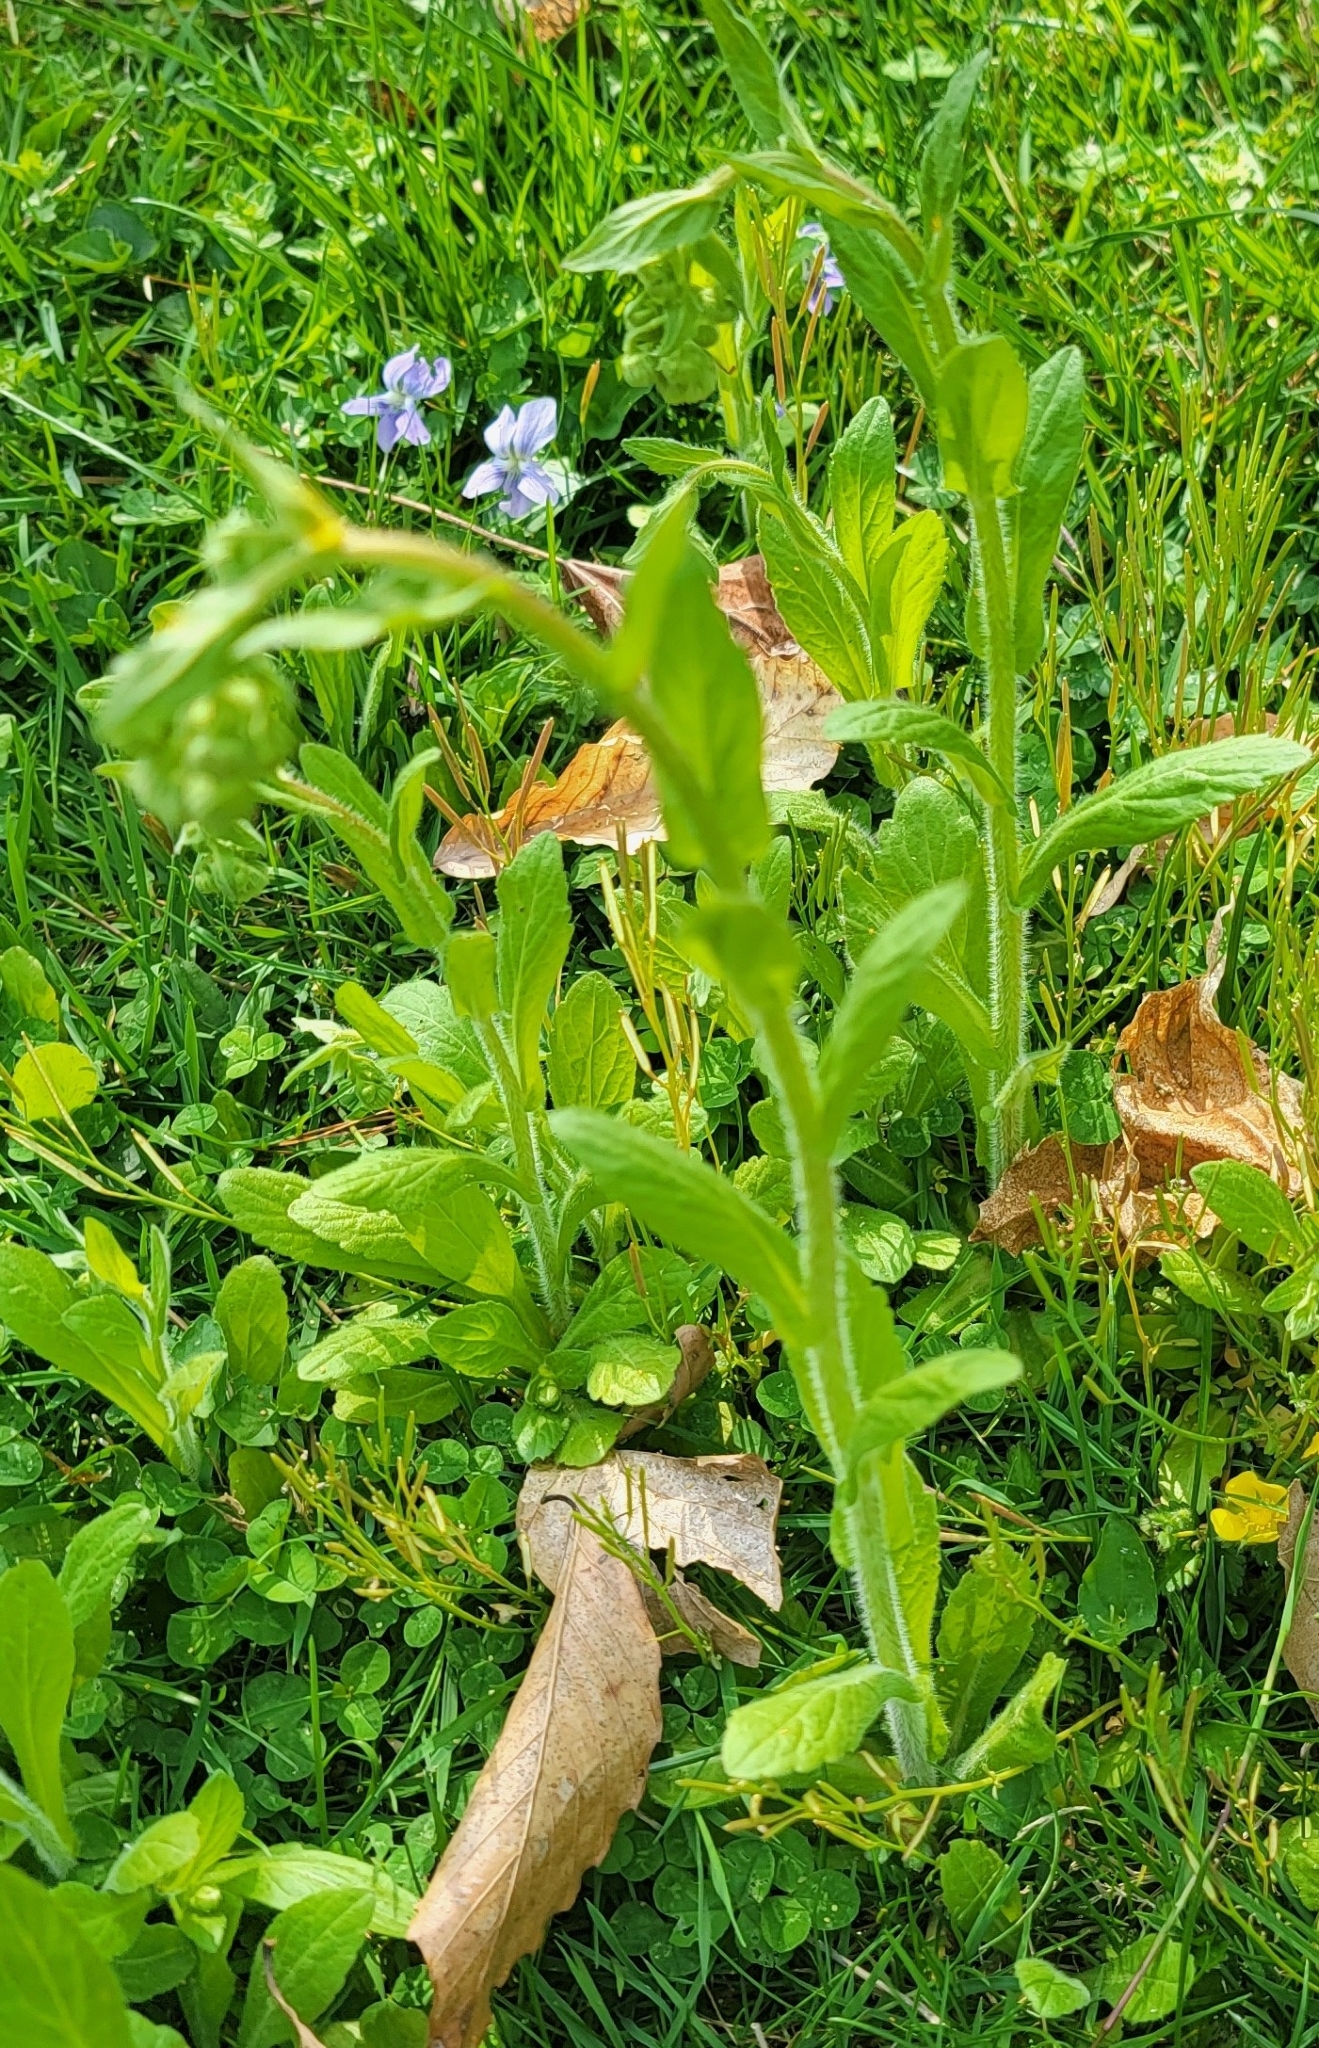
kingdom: Plantae
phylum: Tracheophyta
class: Magnoliopsida
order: Asterales
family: Asteraceae
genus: Erigeron
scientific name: Erigeron philadelphicus
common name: Robin's-plantain
